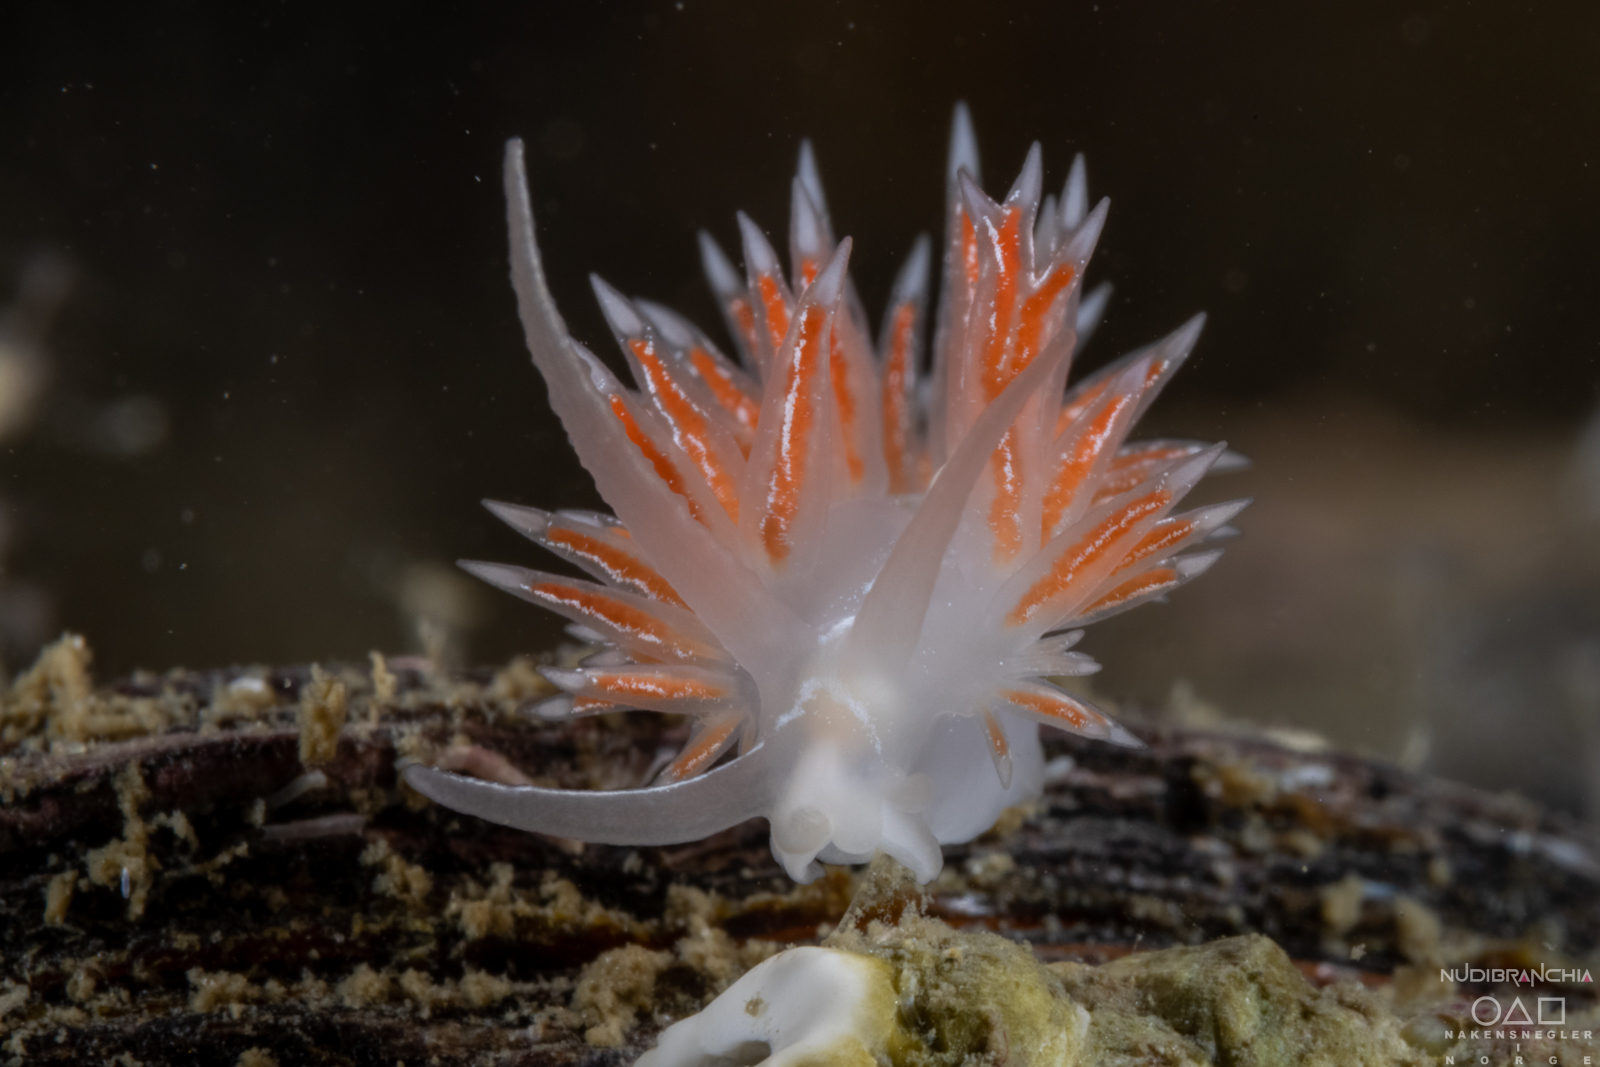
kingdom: Animalia
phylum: Mollusca
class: Gastropoda
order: Nudibranchia
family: Coryphellidae
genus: Coryphella
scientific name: Coryphella chriskaugei
